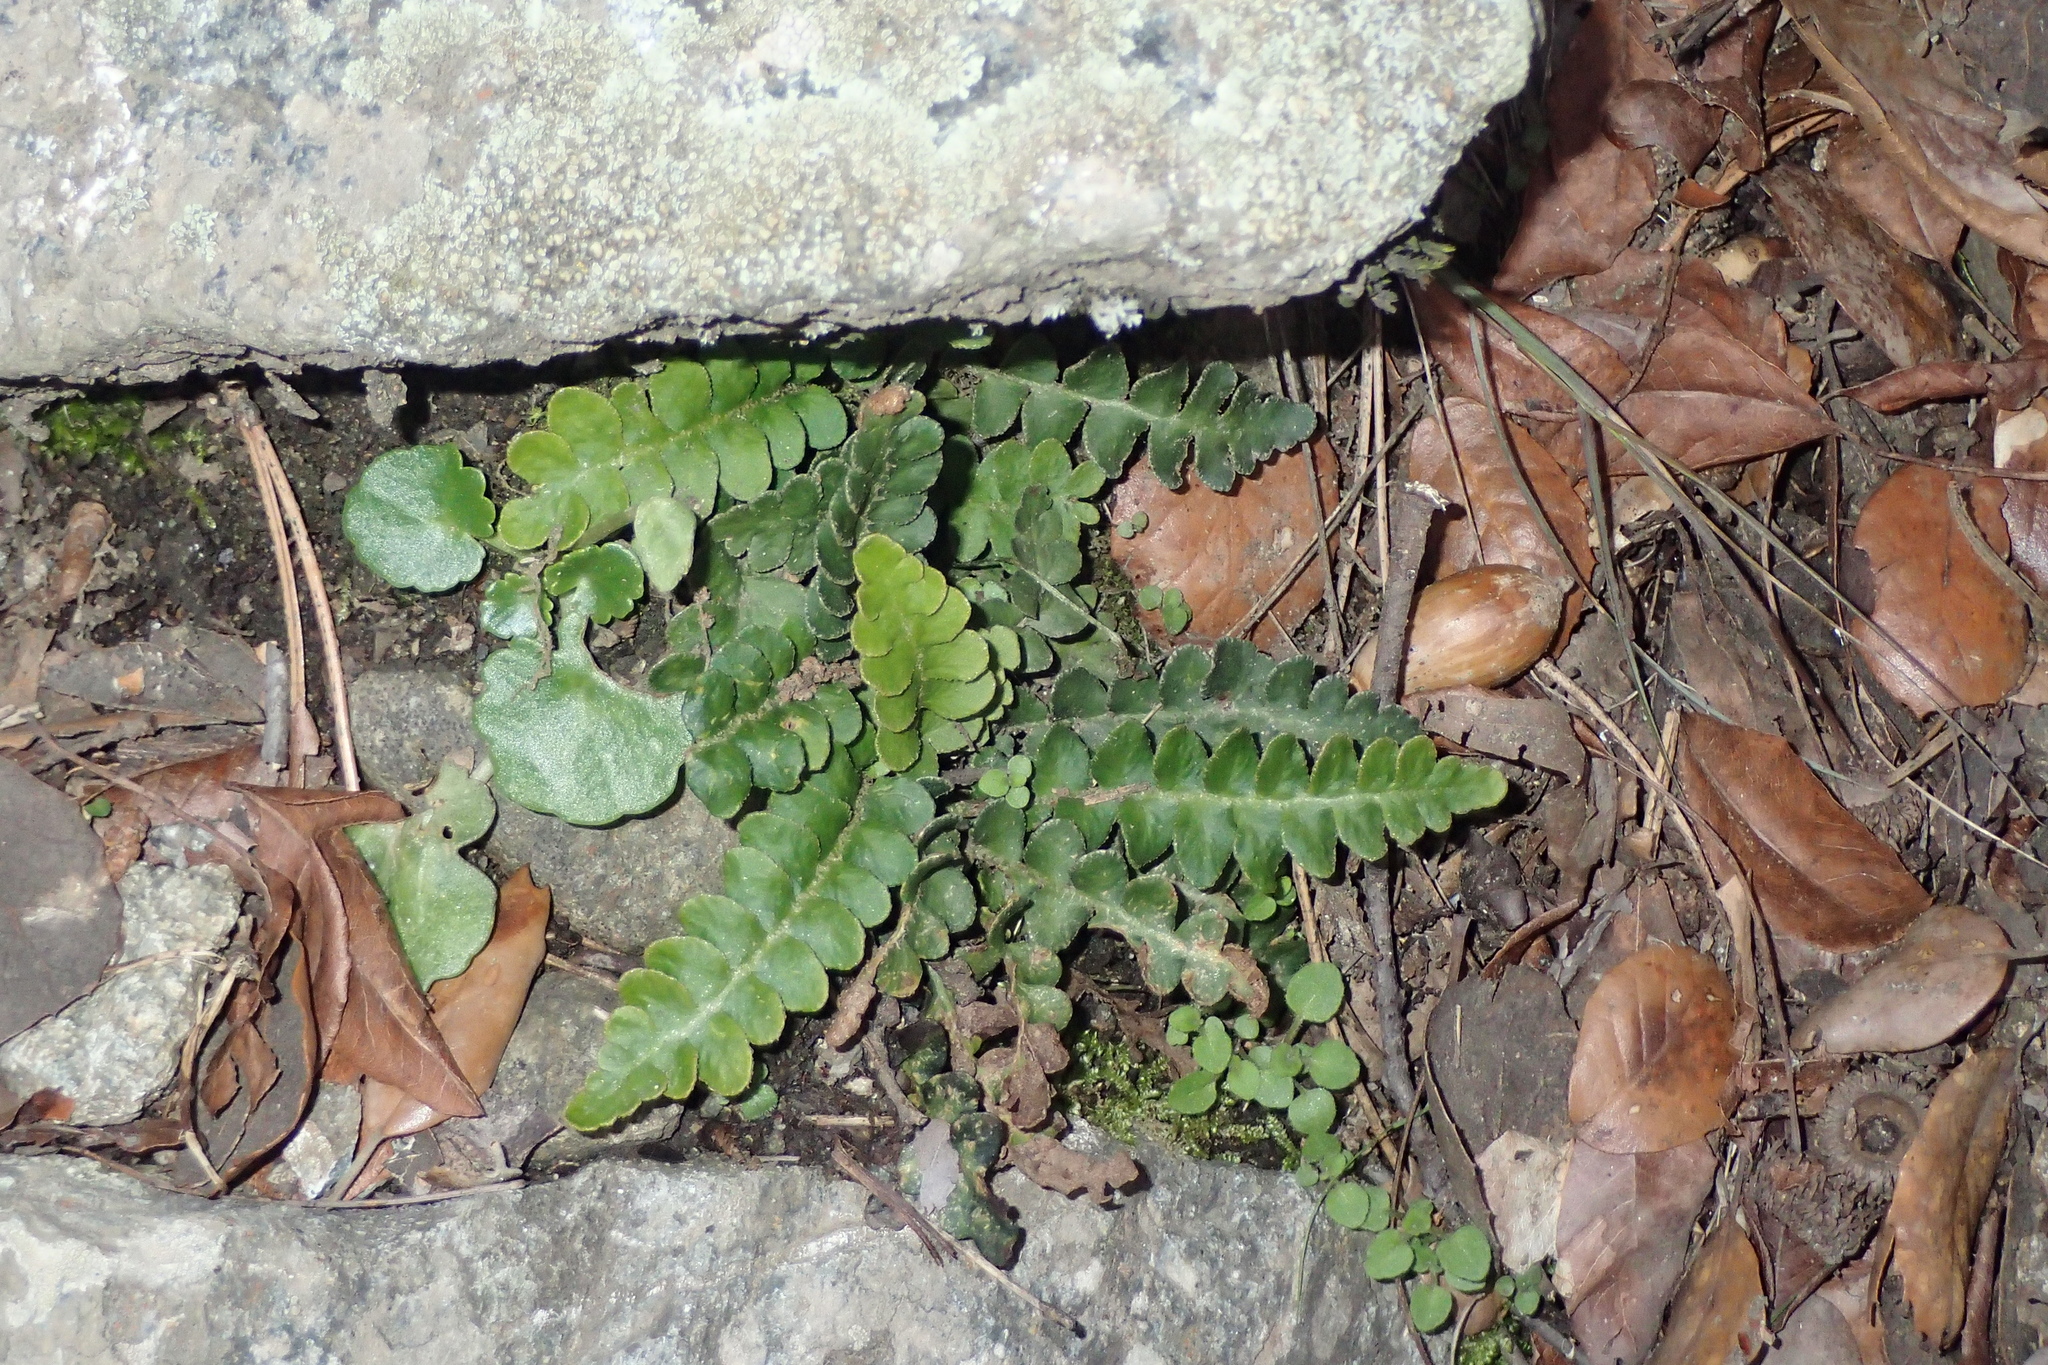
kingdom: Plantae
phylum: Tracheophyta
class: Polypodiopsida
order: Polypodiales
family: Aspleniaceae
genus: Asplenium
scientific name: Asplenium ceterach
